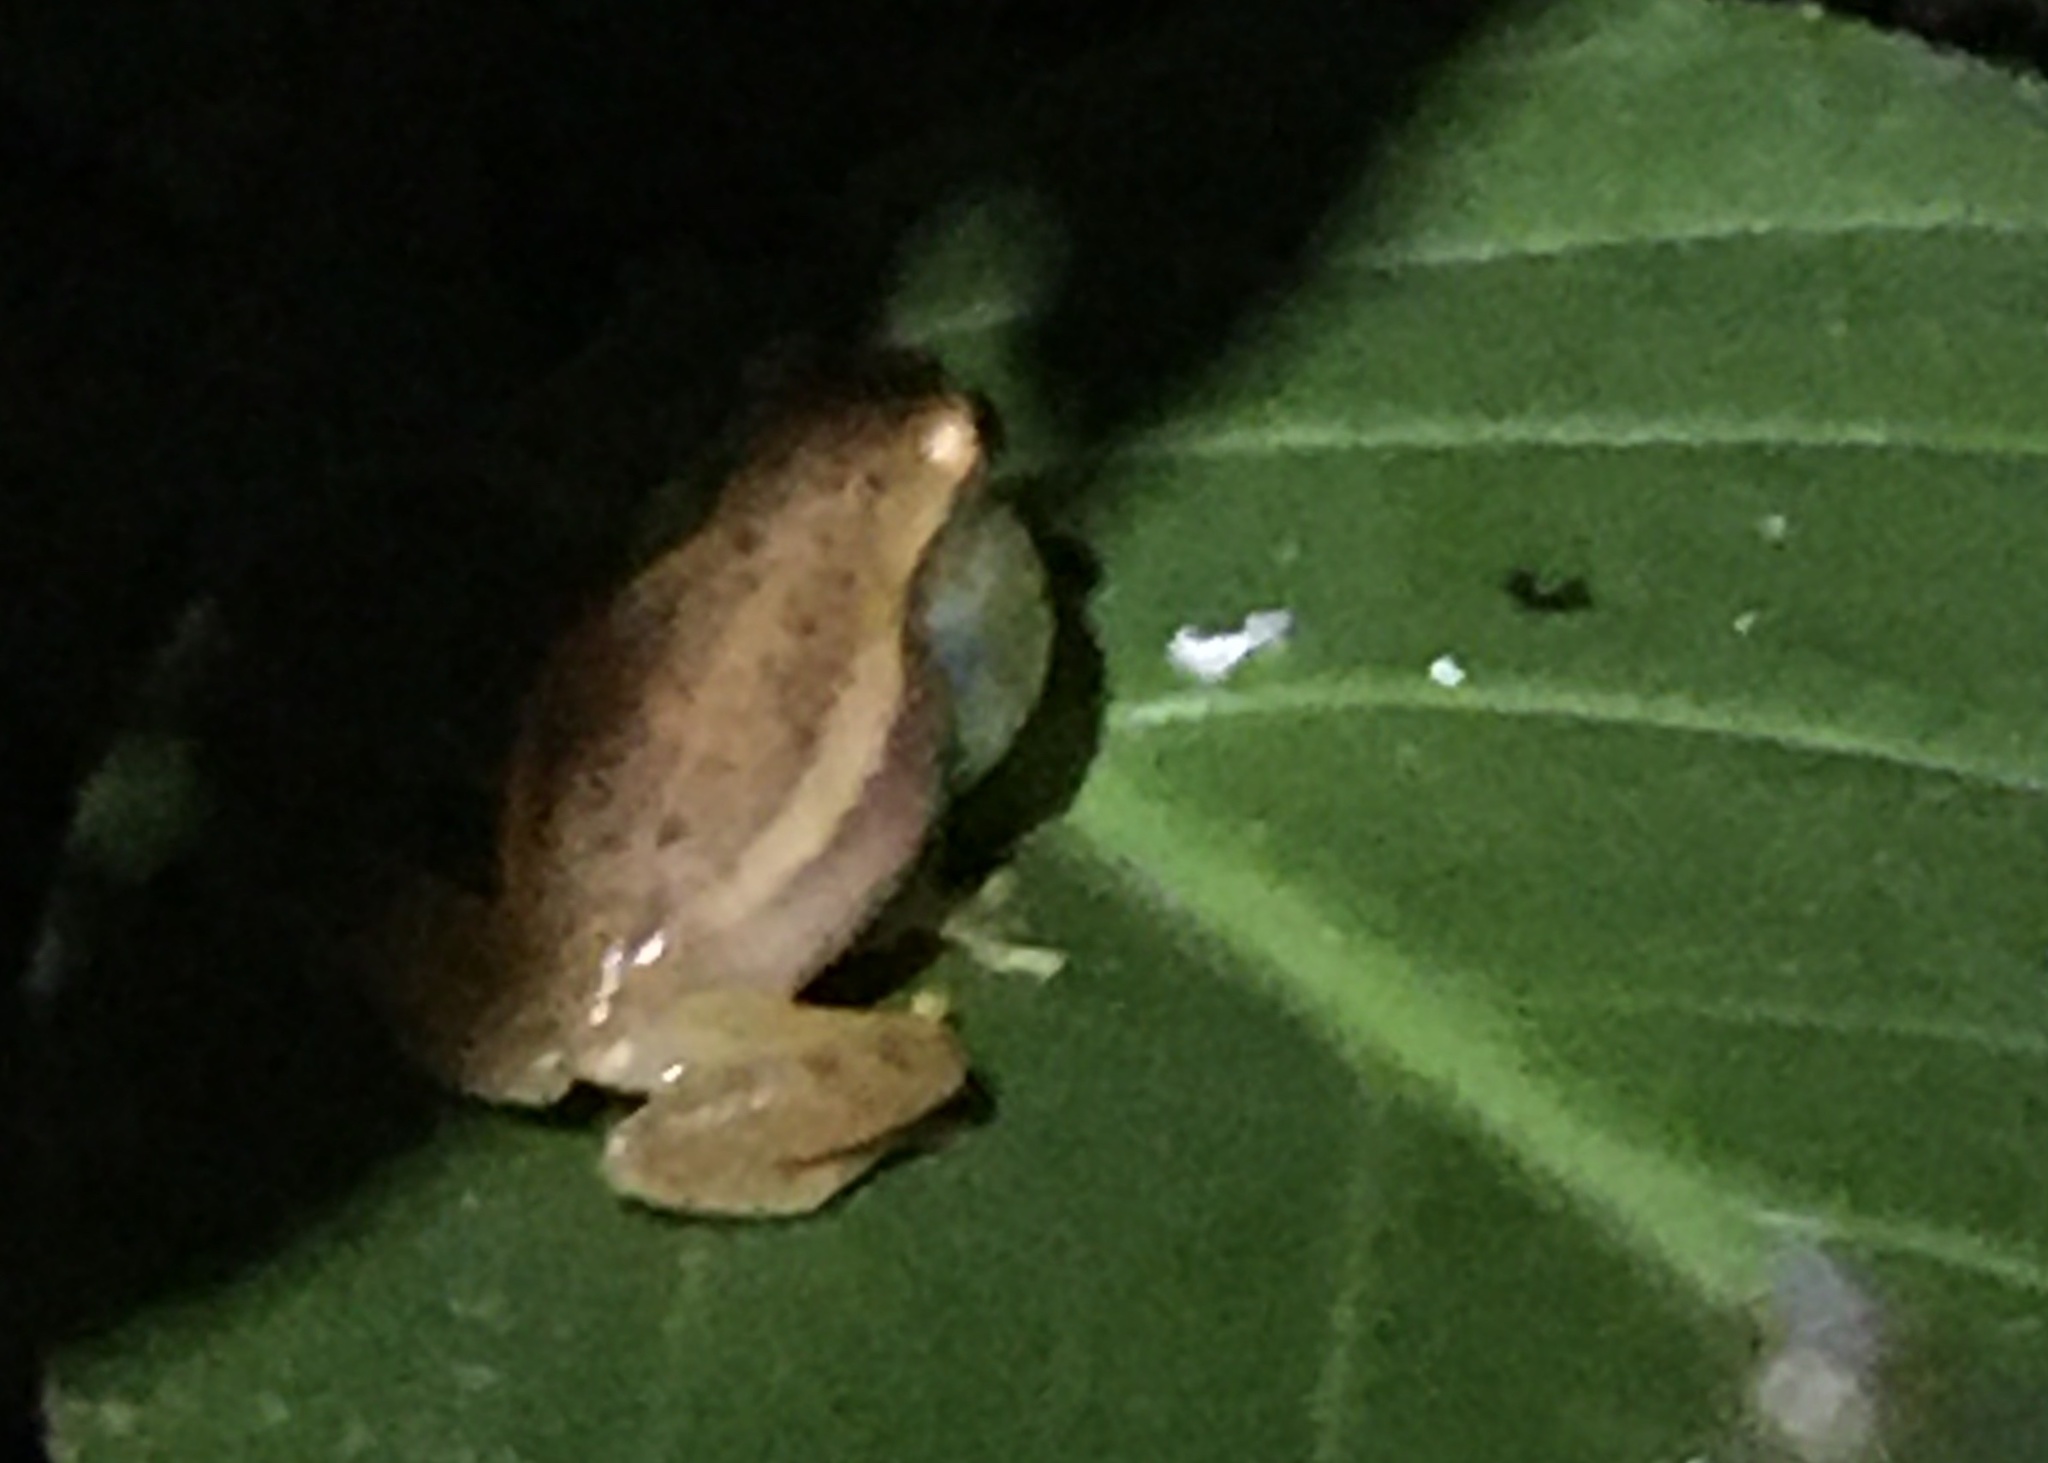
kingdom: Animalia
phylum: Chordata
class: Amphibia
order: Anura
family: Hylidae
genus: Dendropsophus
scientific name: Dendropsophus mathiassoni
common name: Mathiasson's treefrog
